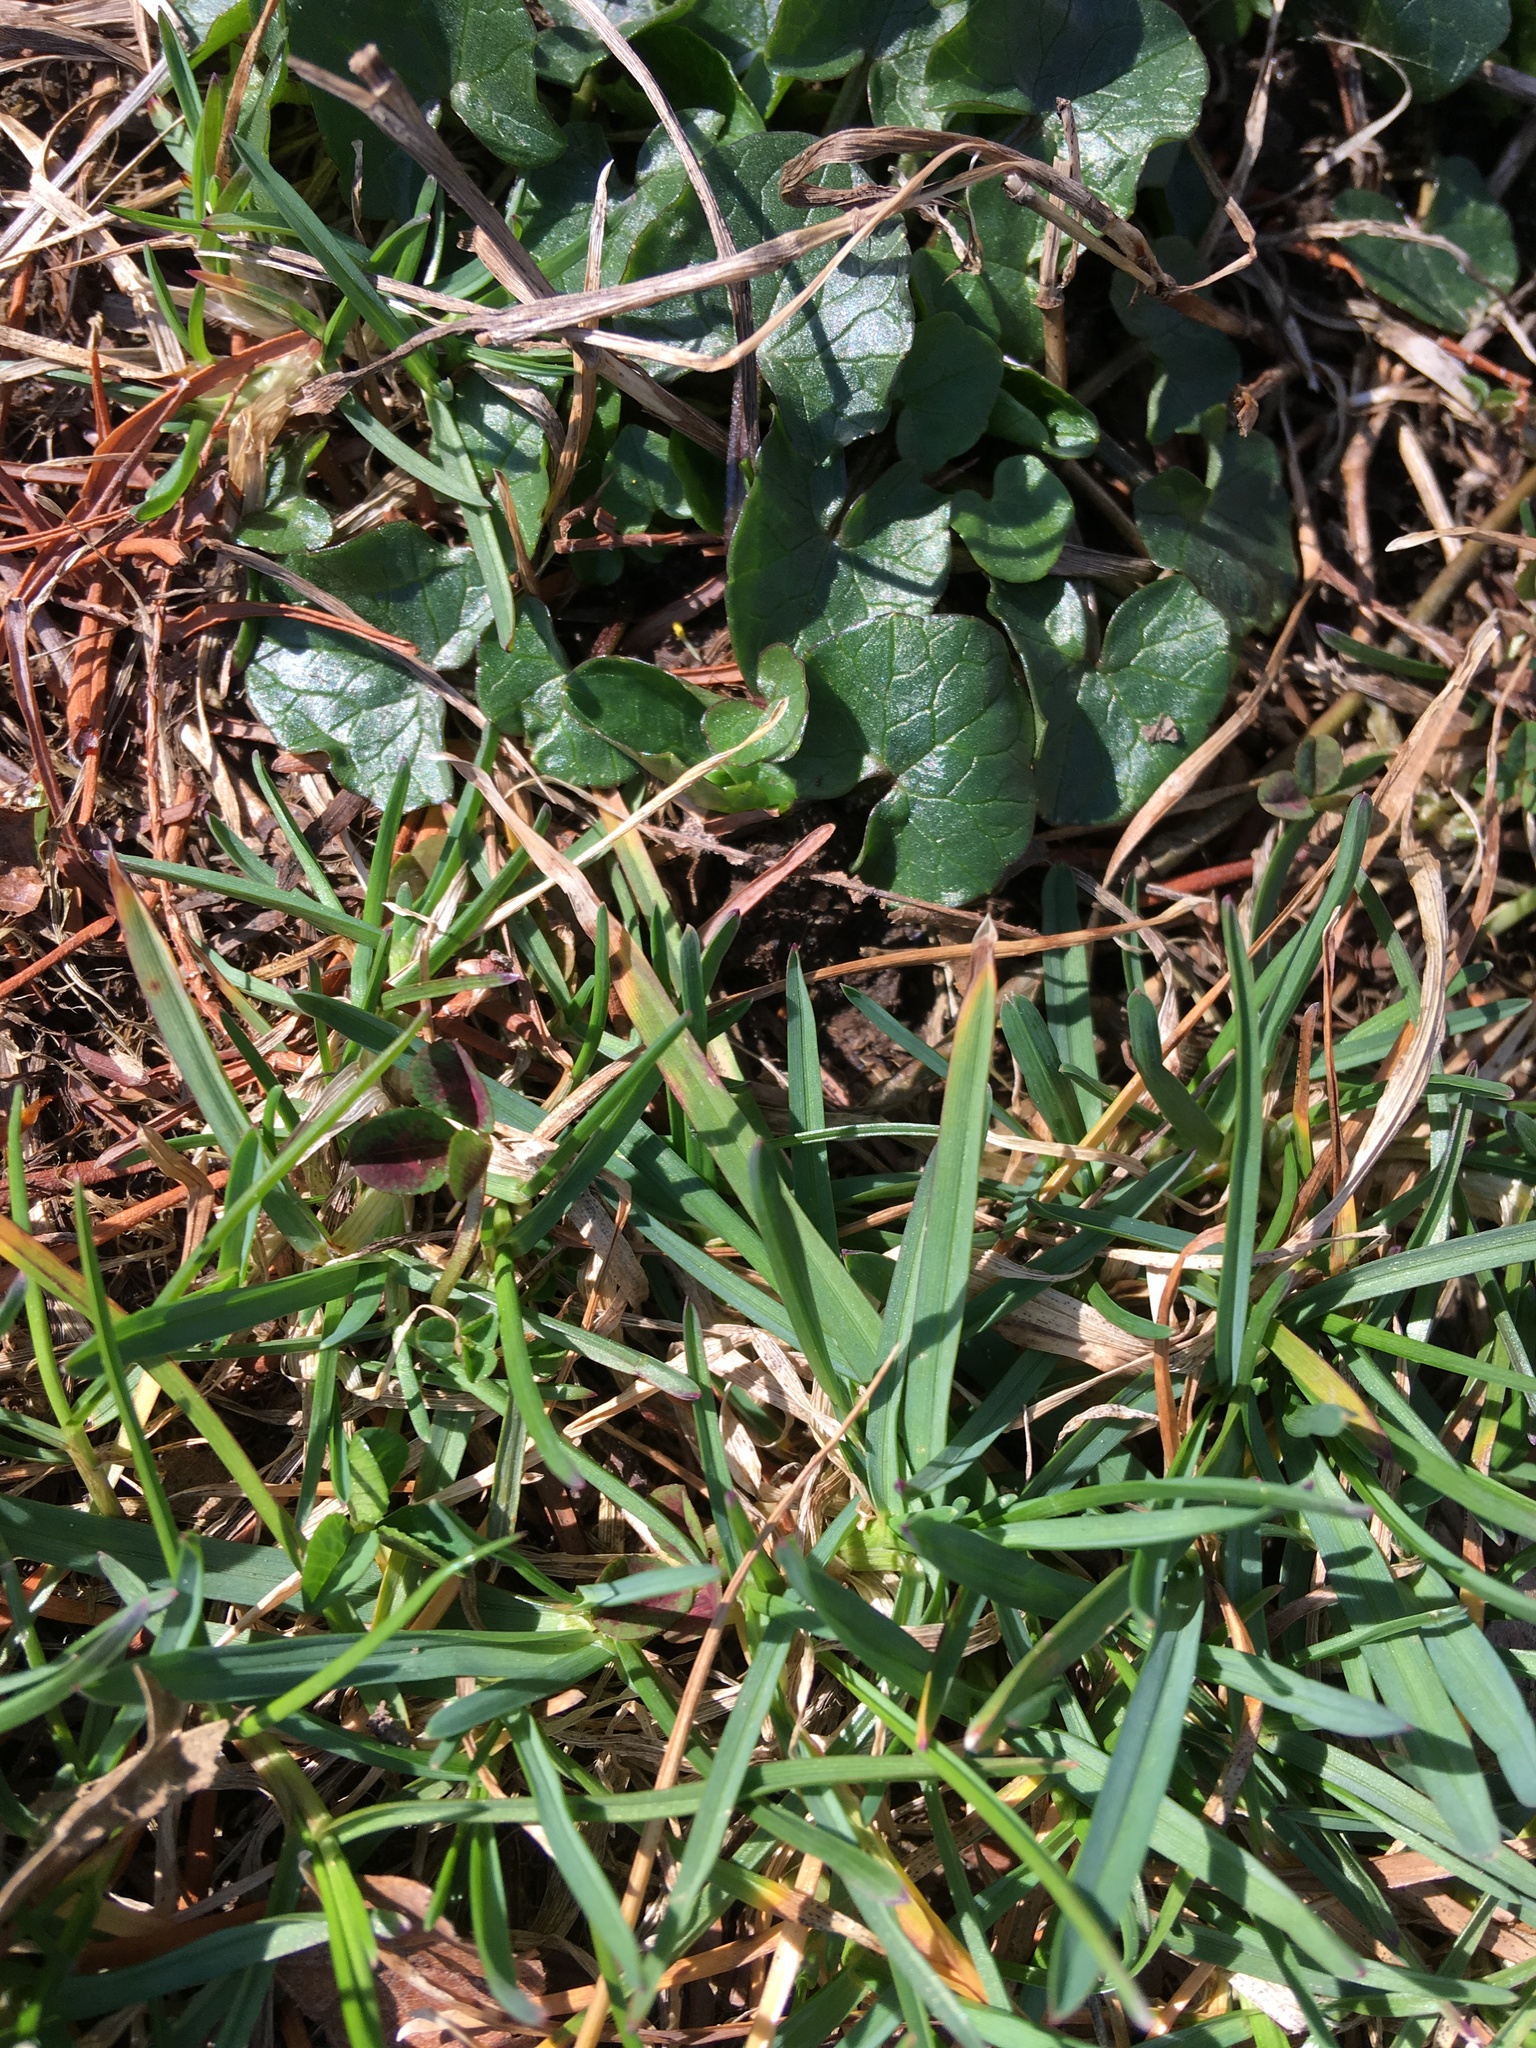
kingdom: Plantae
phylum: Tracheophyta
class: Magnoliopsida
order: Ranunculales
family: Ranunculaceae
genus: Ficaria
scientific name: Ficaria verna
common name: Lesser celandine
